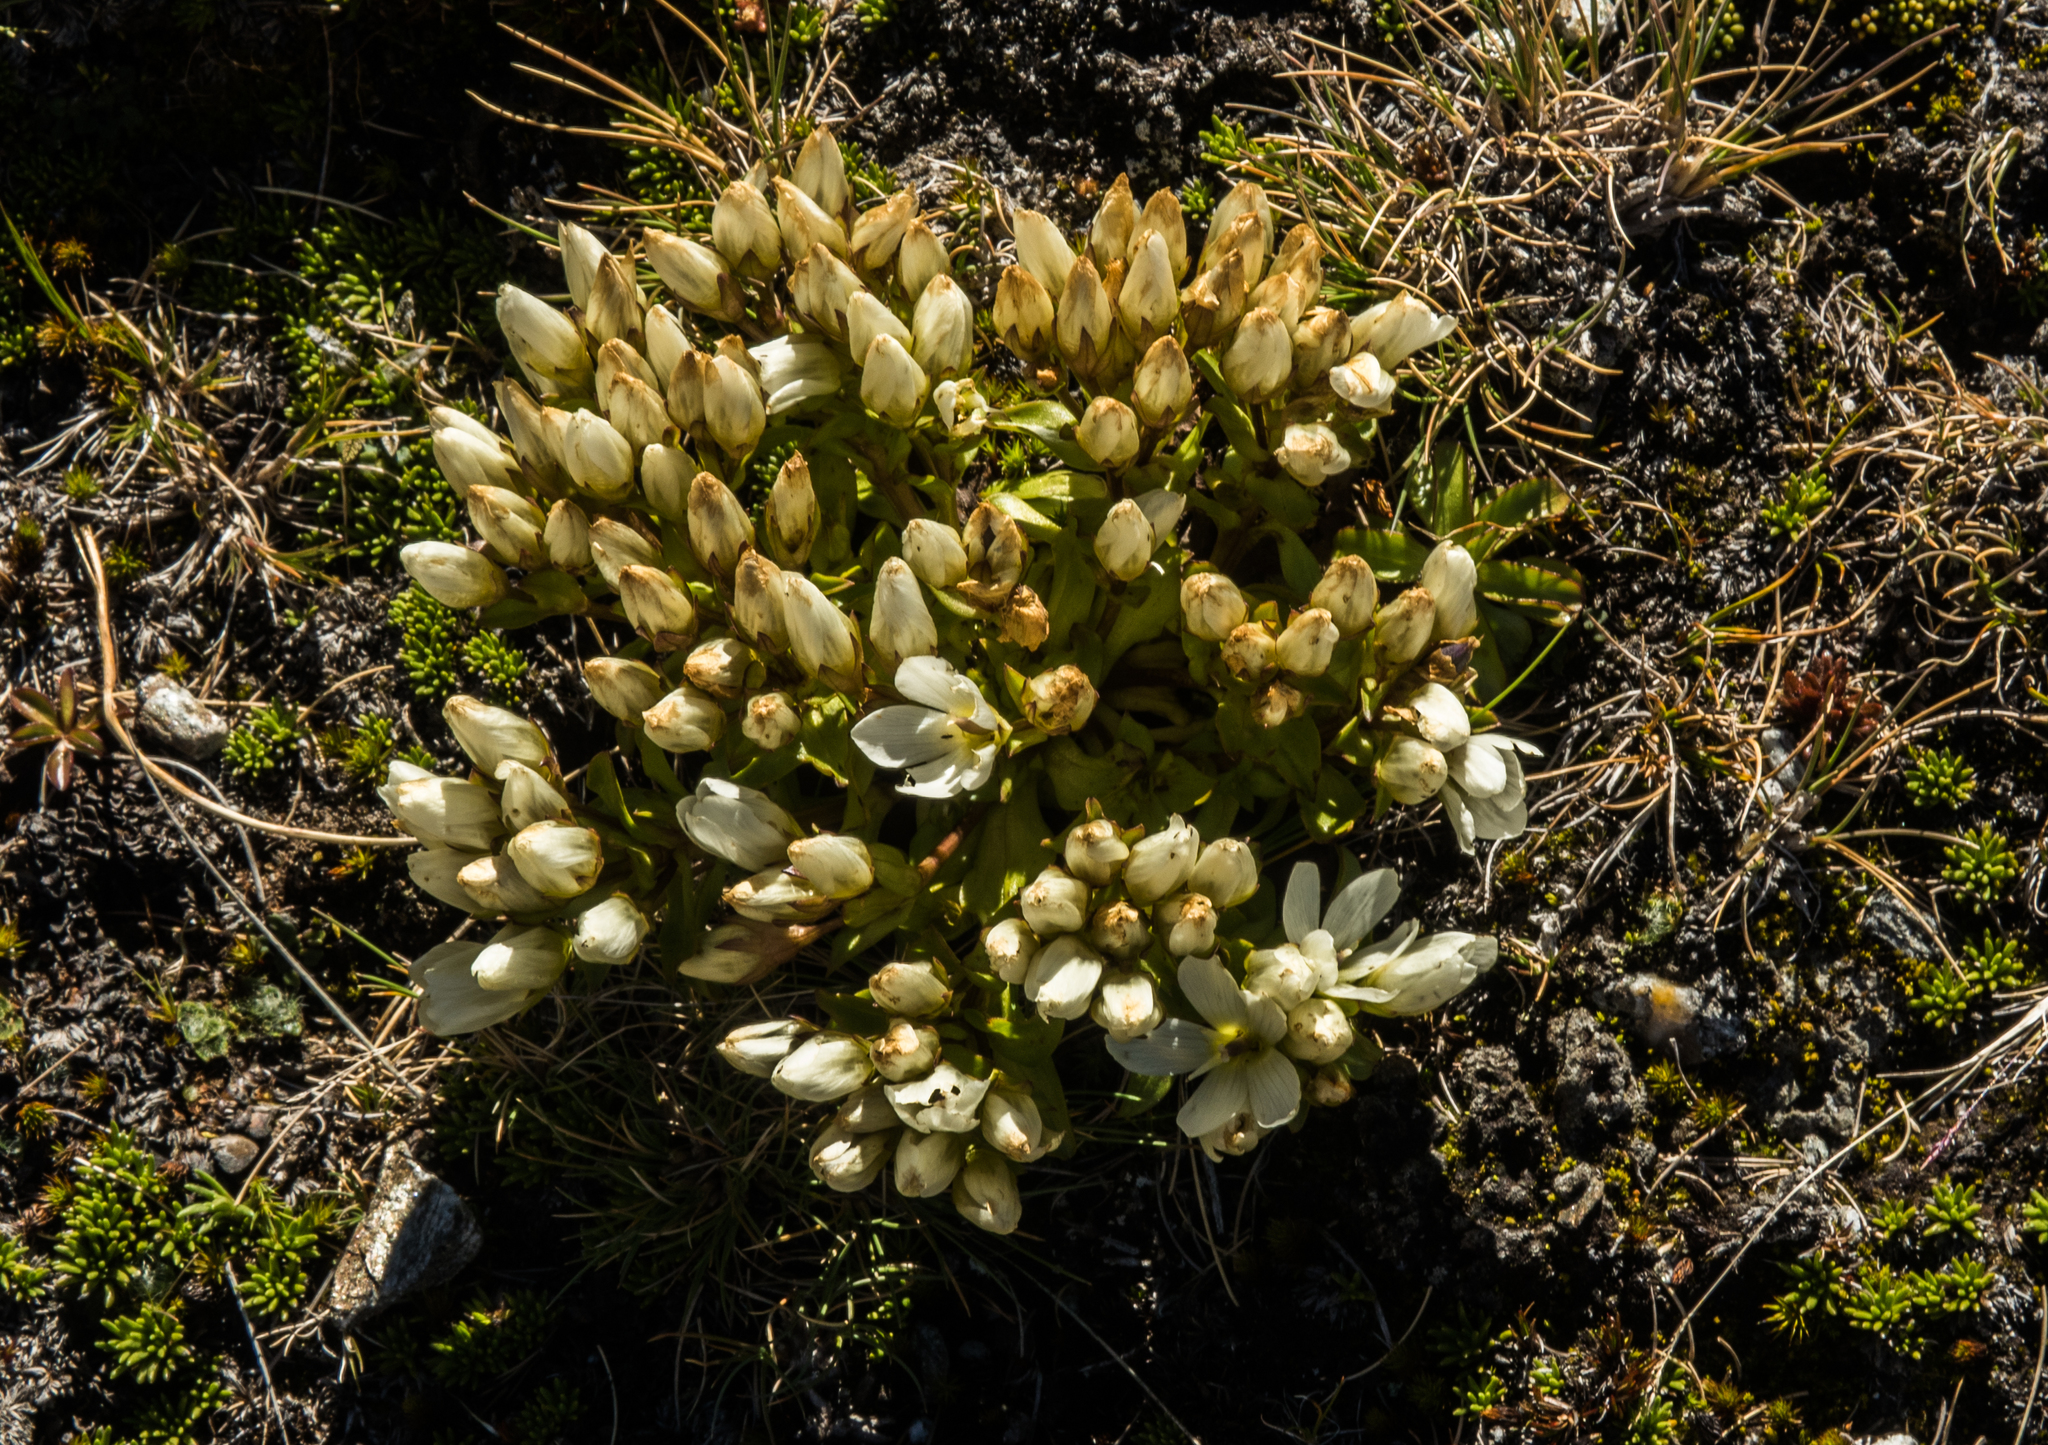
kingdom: Plantae
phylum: Tracheophyta
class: Magnoliopsida
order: Gentianales
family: Gentianaceae
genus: Gentianella
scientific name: Gentianella divisa
